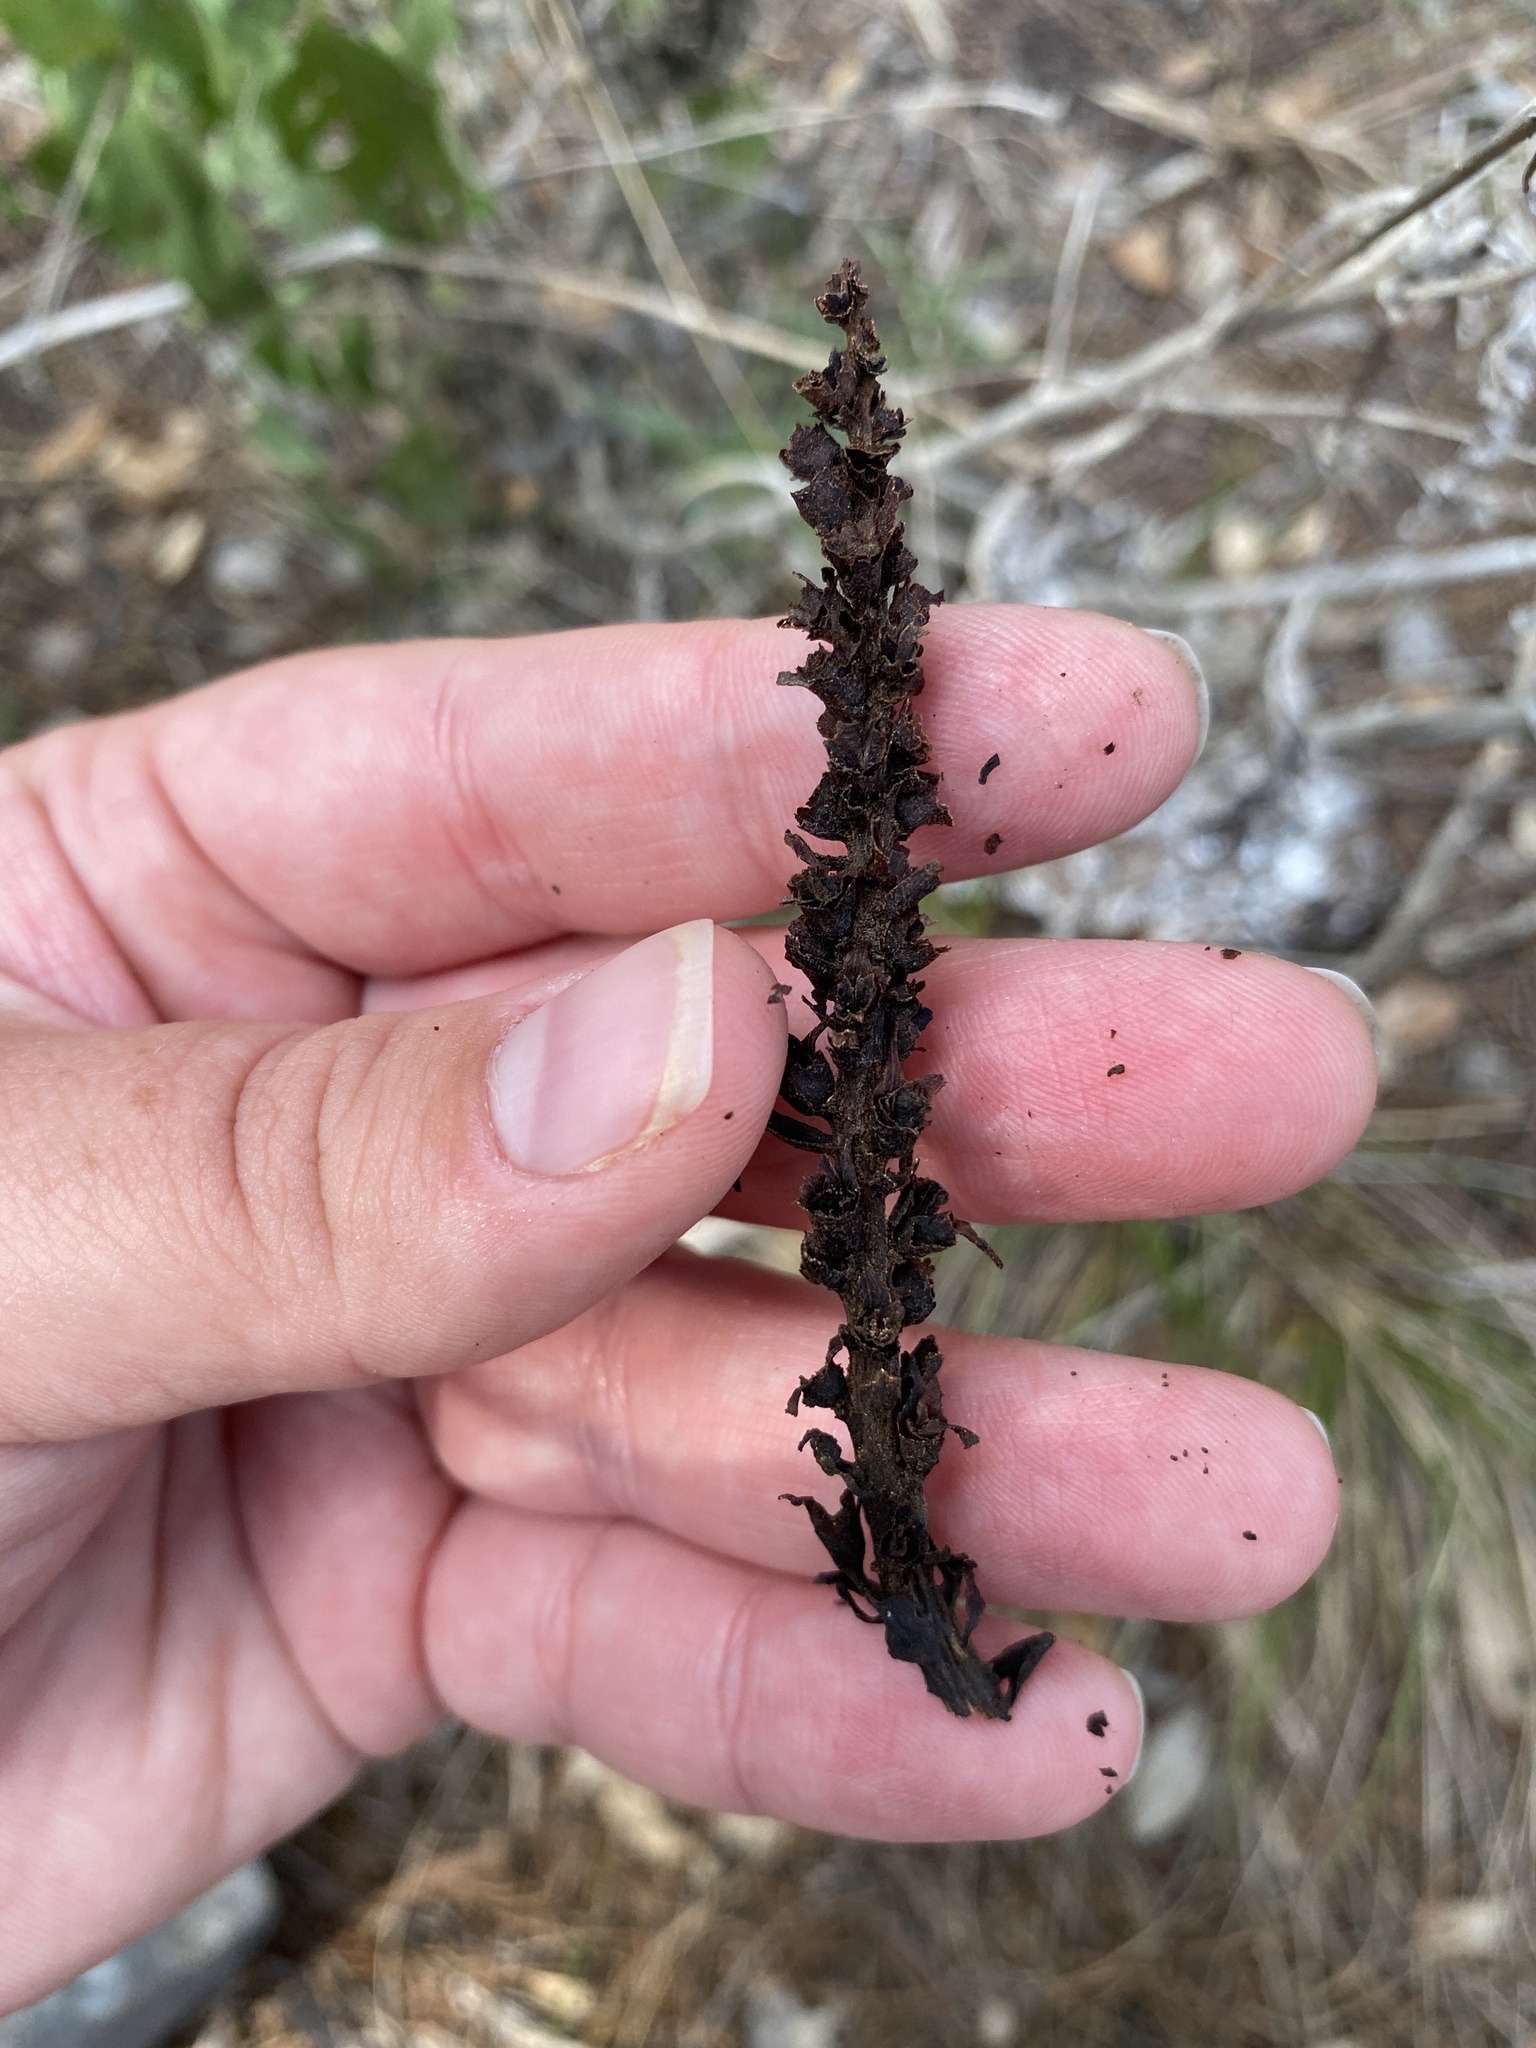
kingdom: Plantae
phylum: Tracheophyta
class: Magnoliopsida
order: Lamiales
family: Orobanchaceae
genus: Aphyllon
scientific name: Aphyllon cooperi
